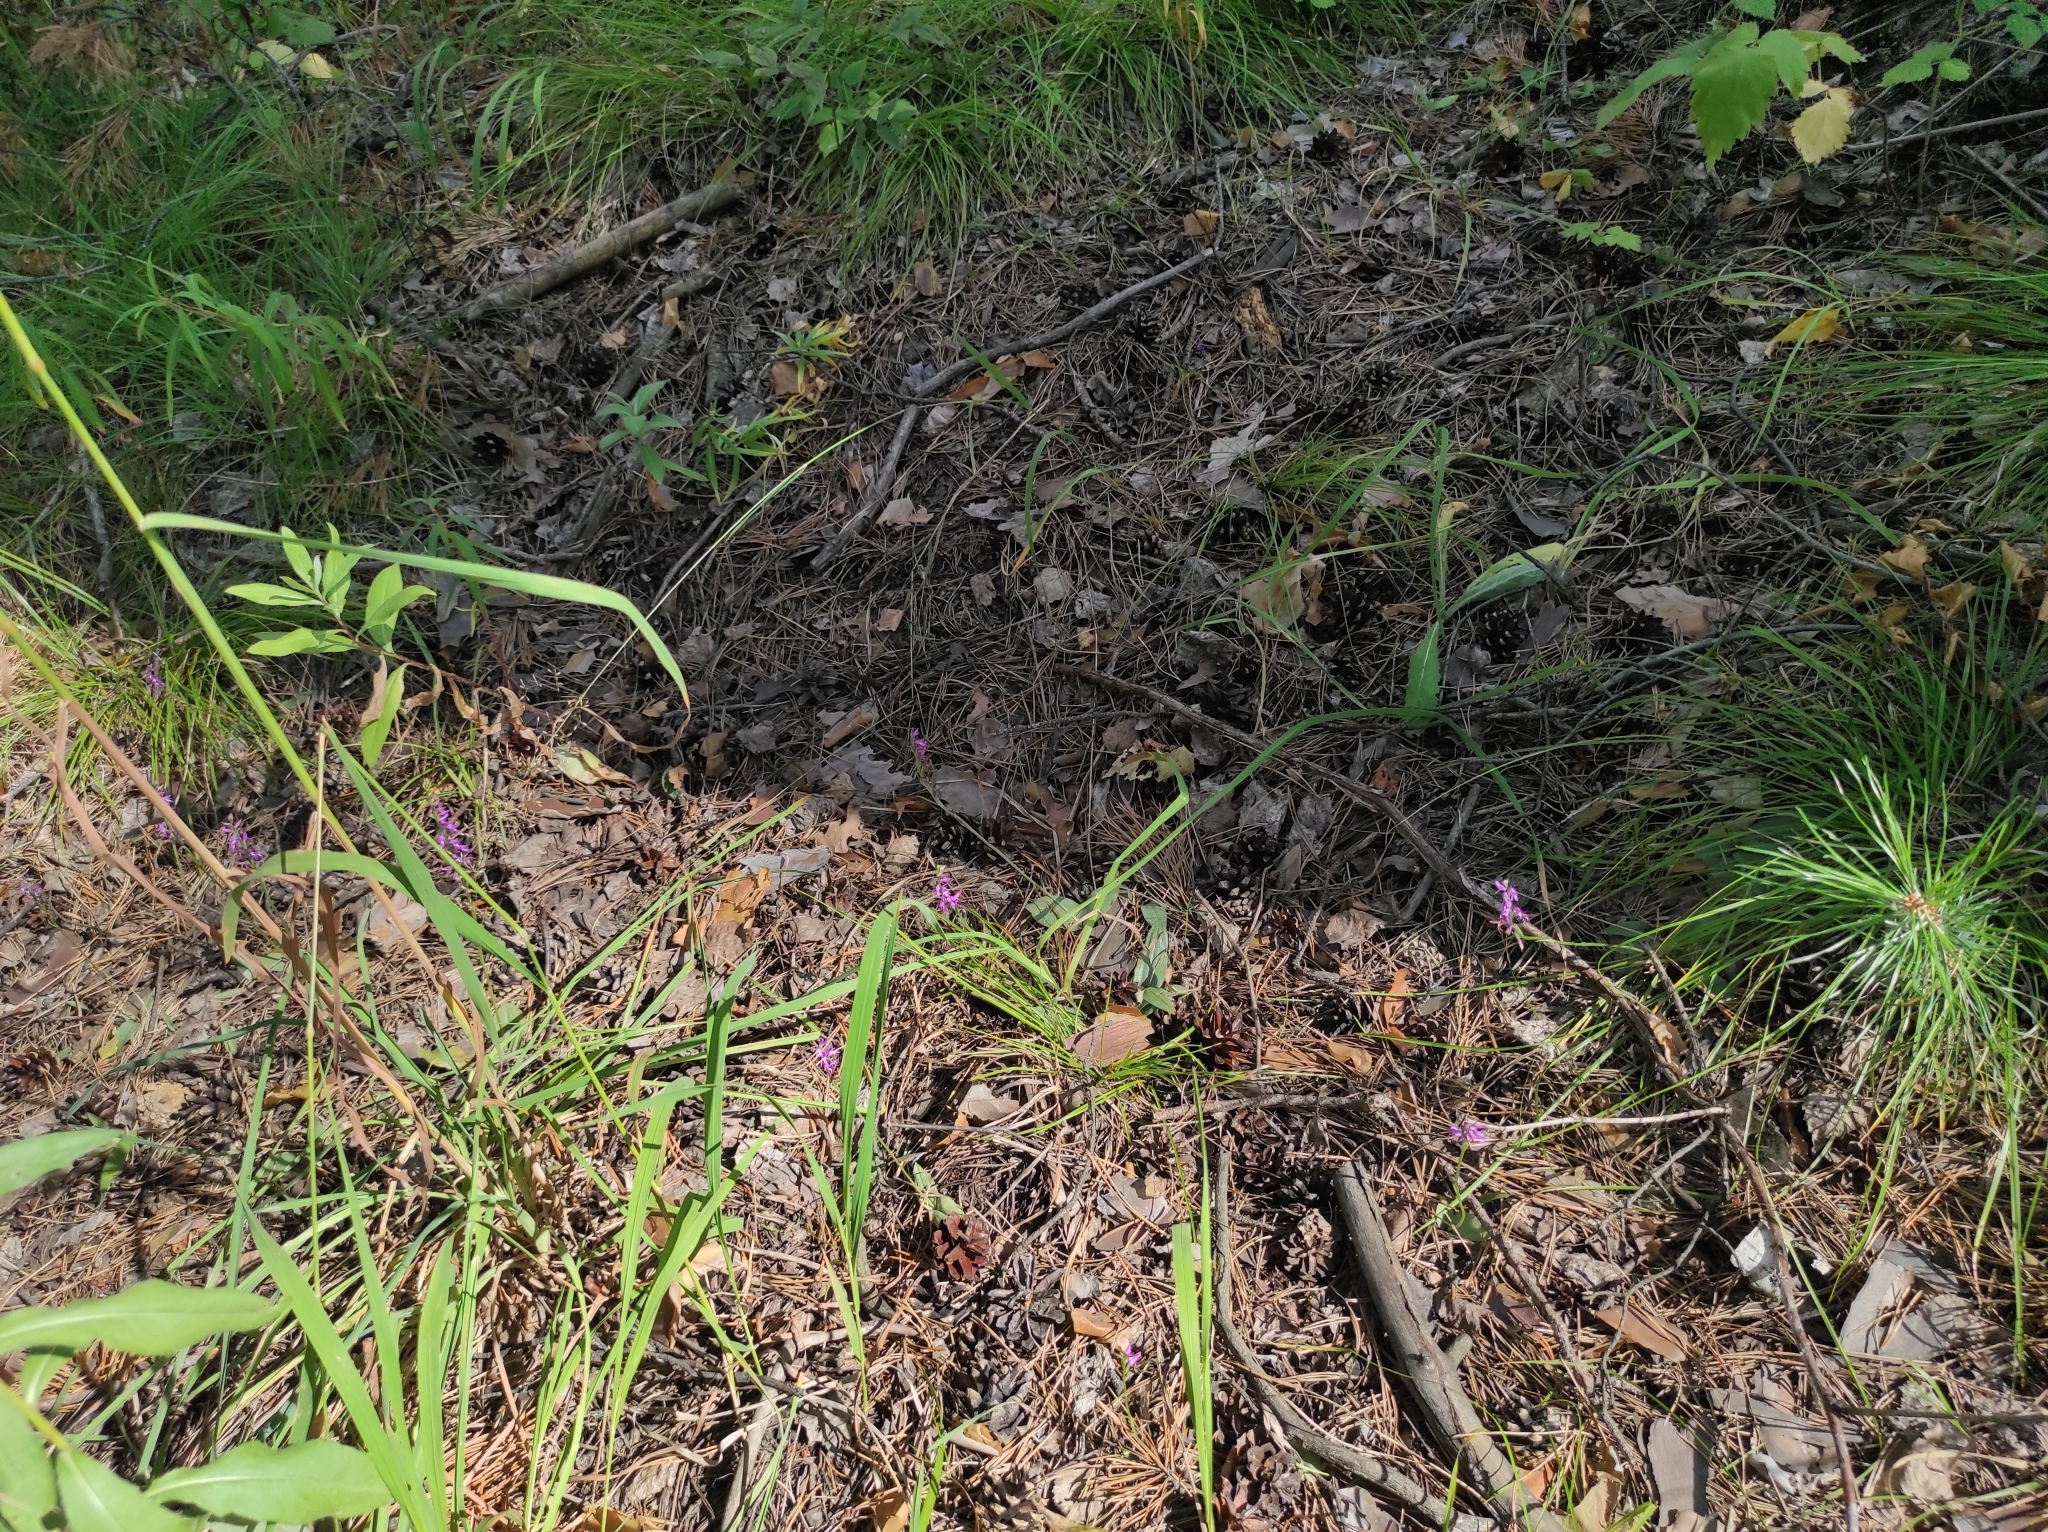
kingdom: Plantae
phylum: Tracheophyta
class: Liliopsida
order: Asparagales
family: Orchidaceae
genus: Hemipilia
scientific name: Hemipilia cucullata
